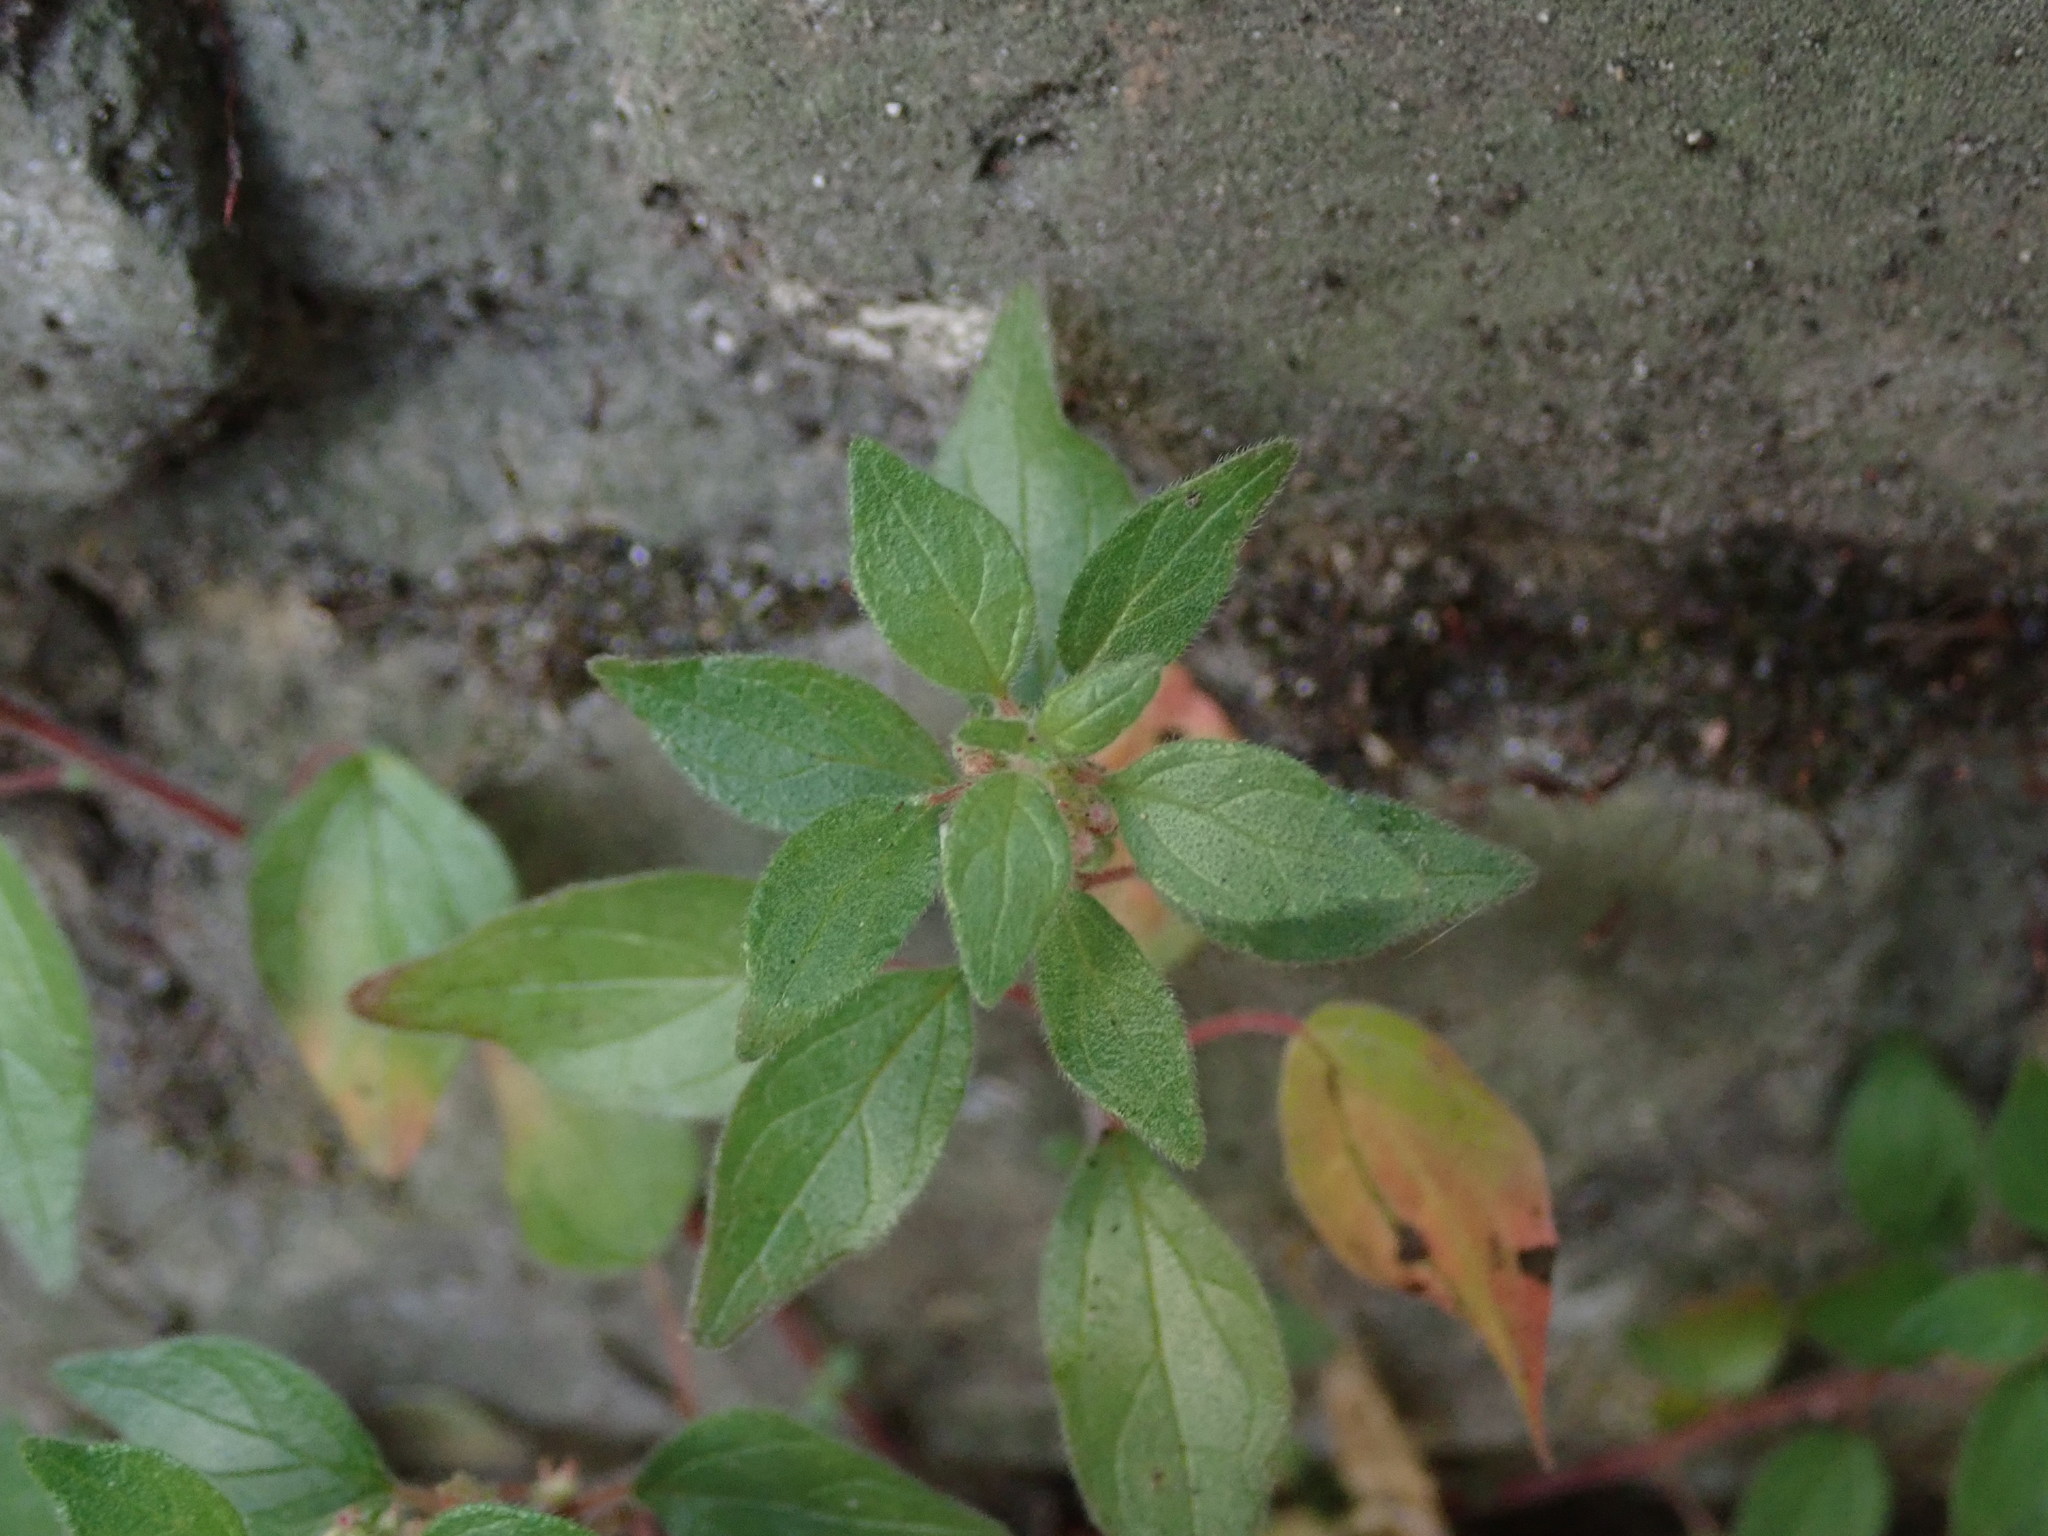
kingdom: Plantae
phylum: Tracheophyta
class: Magnoliopsida
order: Rosales
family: Urticaceae
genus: Parietaria
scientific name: Parietaria judaica
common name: Pellitory-of-the-wall
